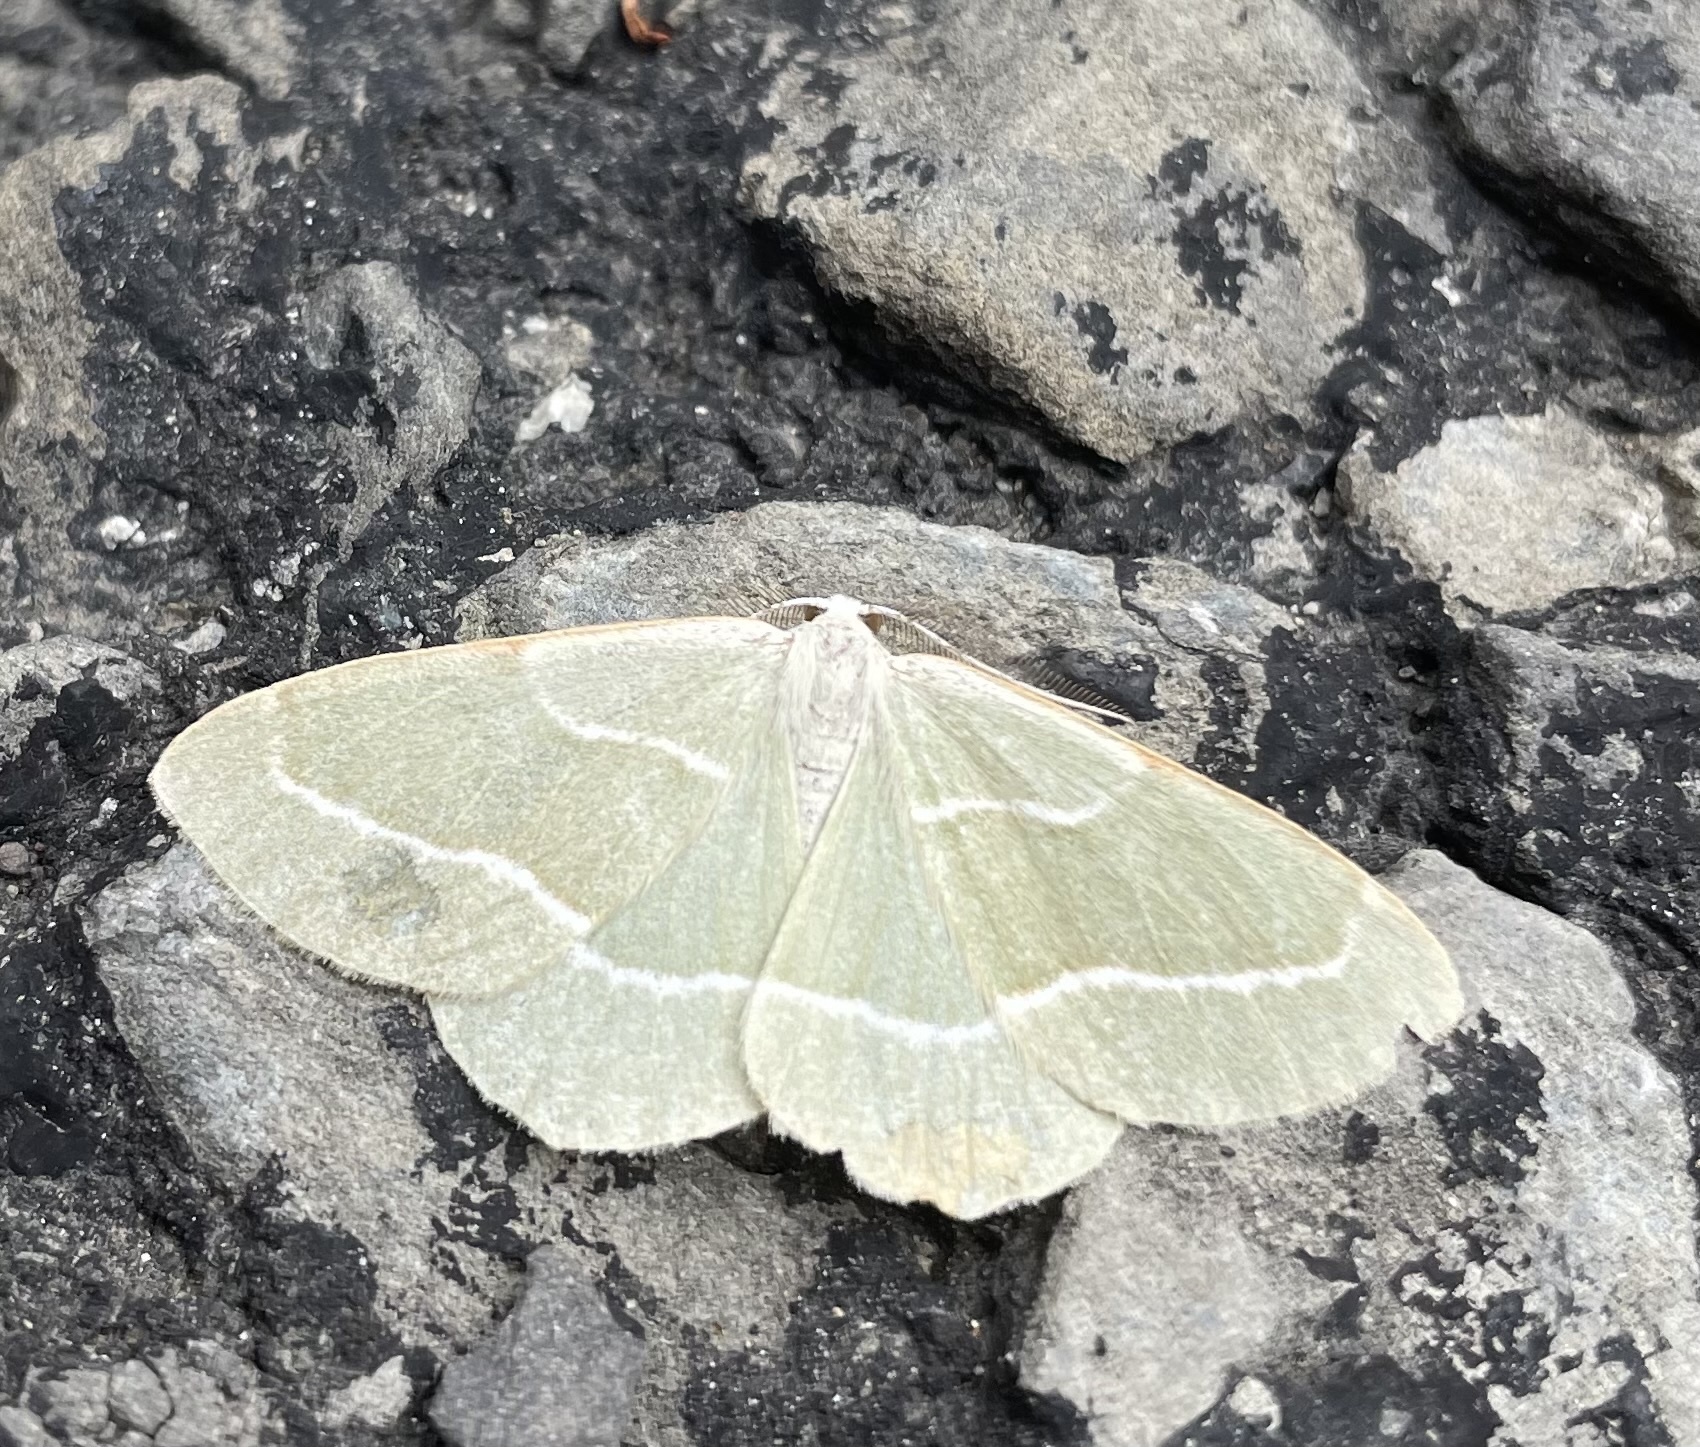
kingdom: Animalia
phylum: Arthropoda
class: Insecta
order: Lepidoptera
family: Geometridae
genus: Hylaea
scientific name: Hylaea fasciaria
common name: Barred red
